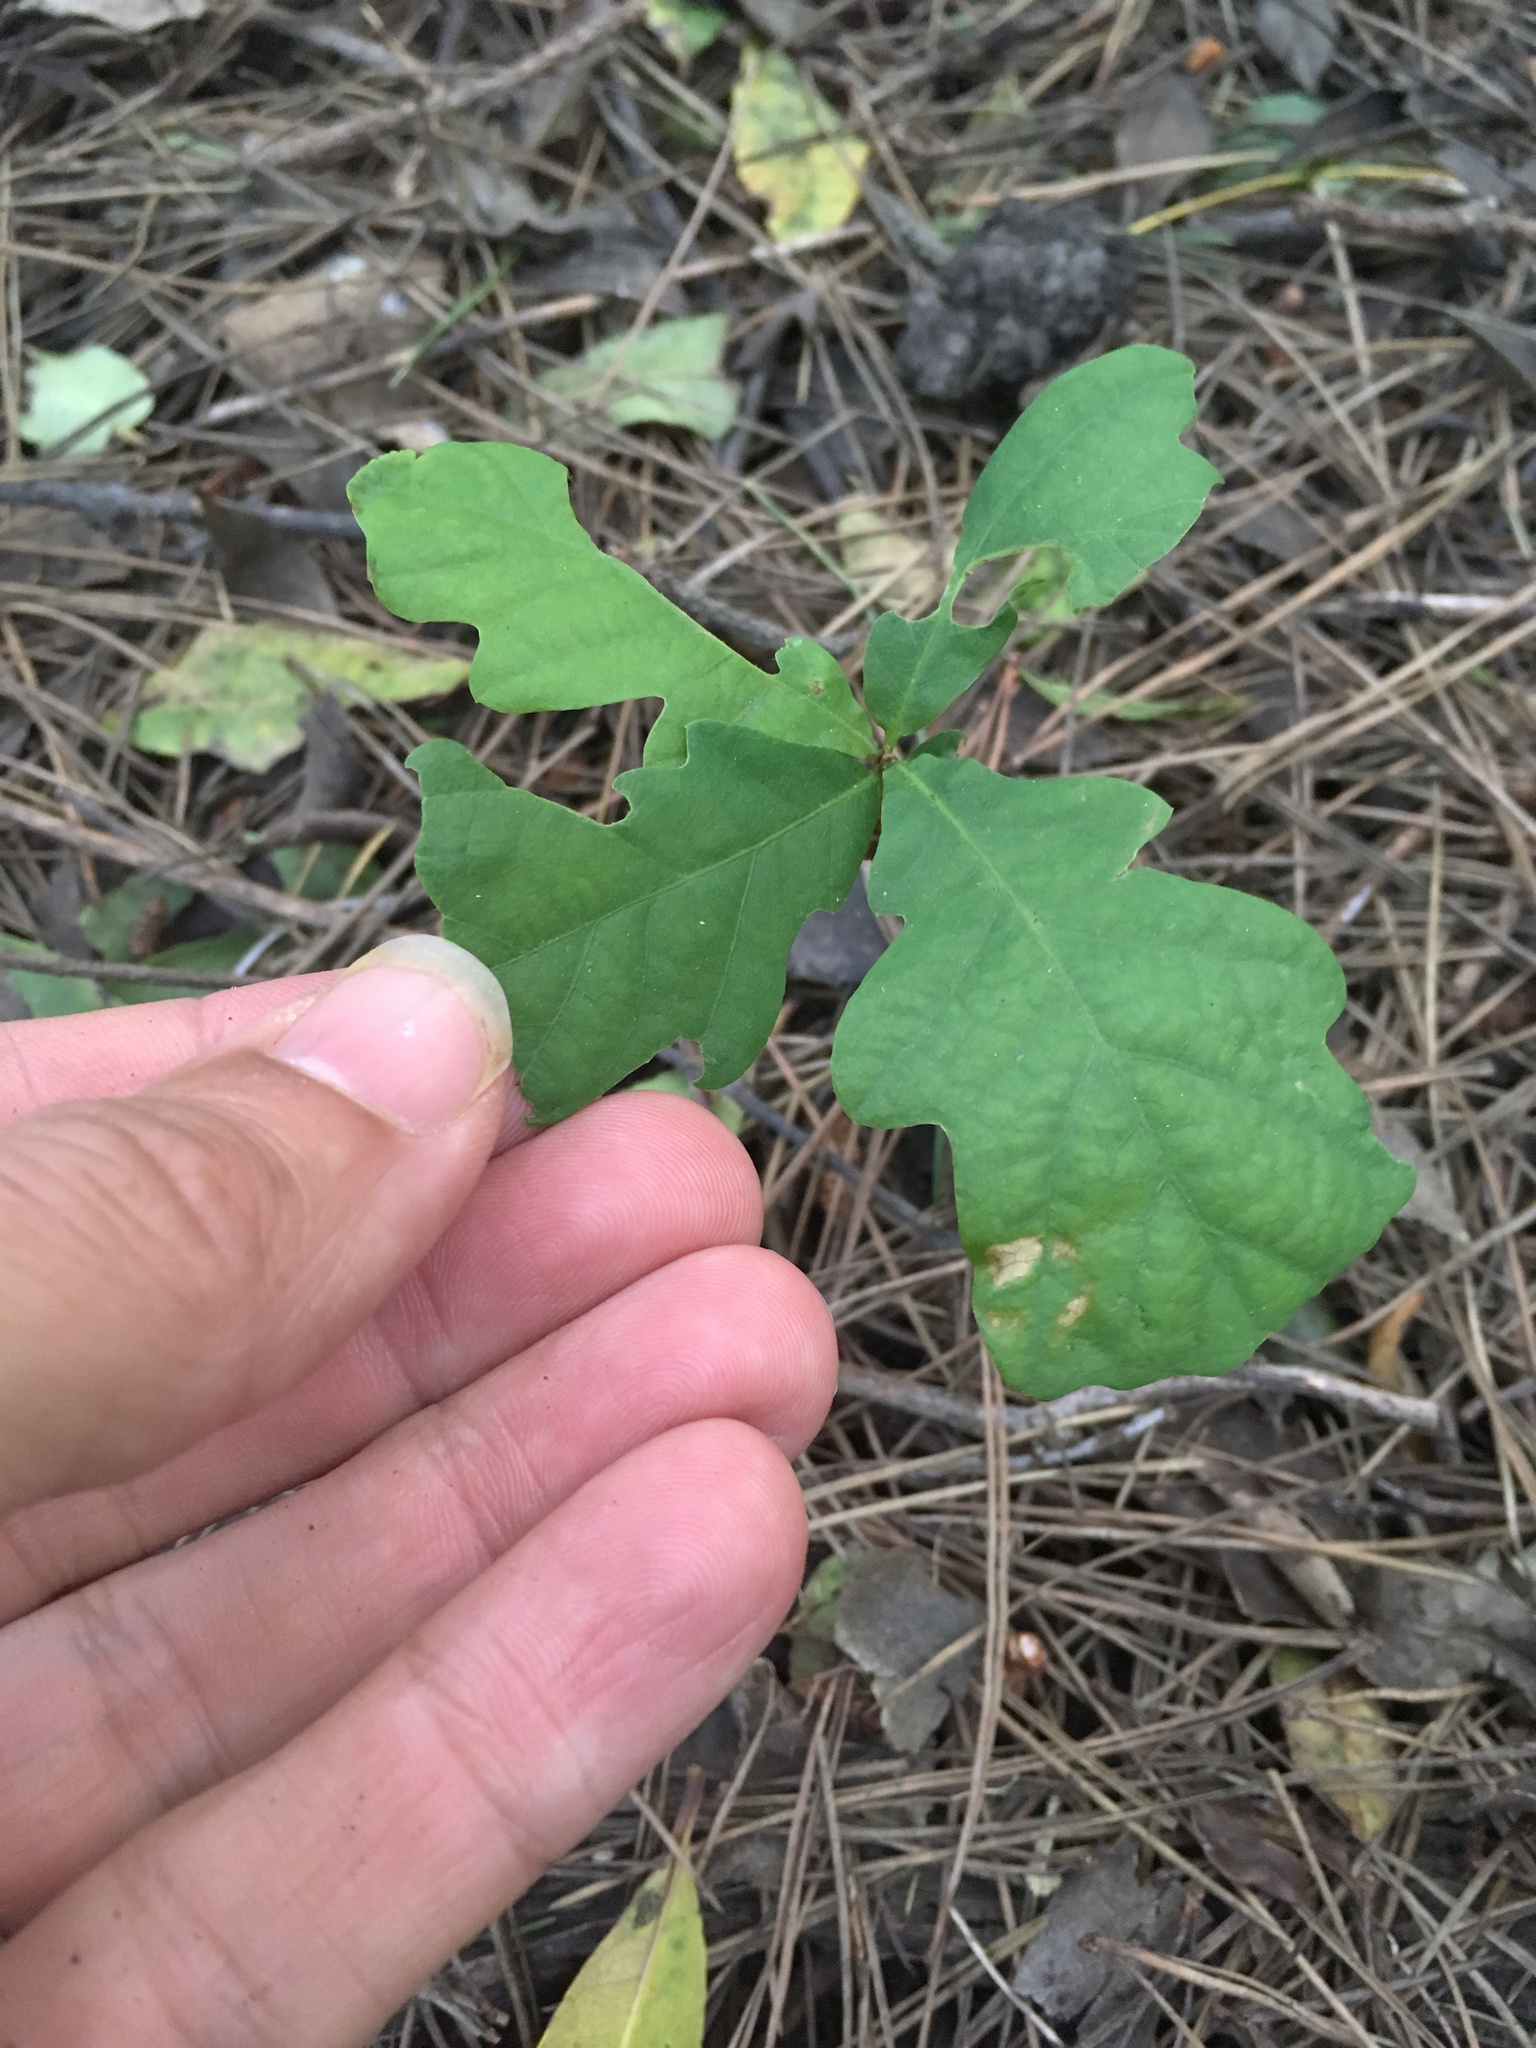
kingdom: Plantae
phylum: Tracheophyta
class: Magnoliopsida
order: Fagales
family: Fagaceae
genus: Quercus
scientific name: Quercus robur
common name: Pedunculate oak
